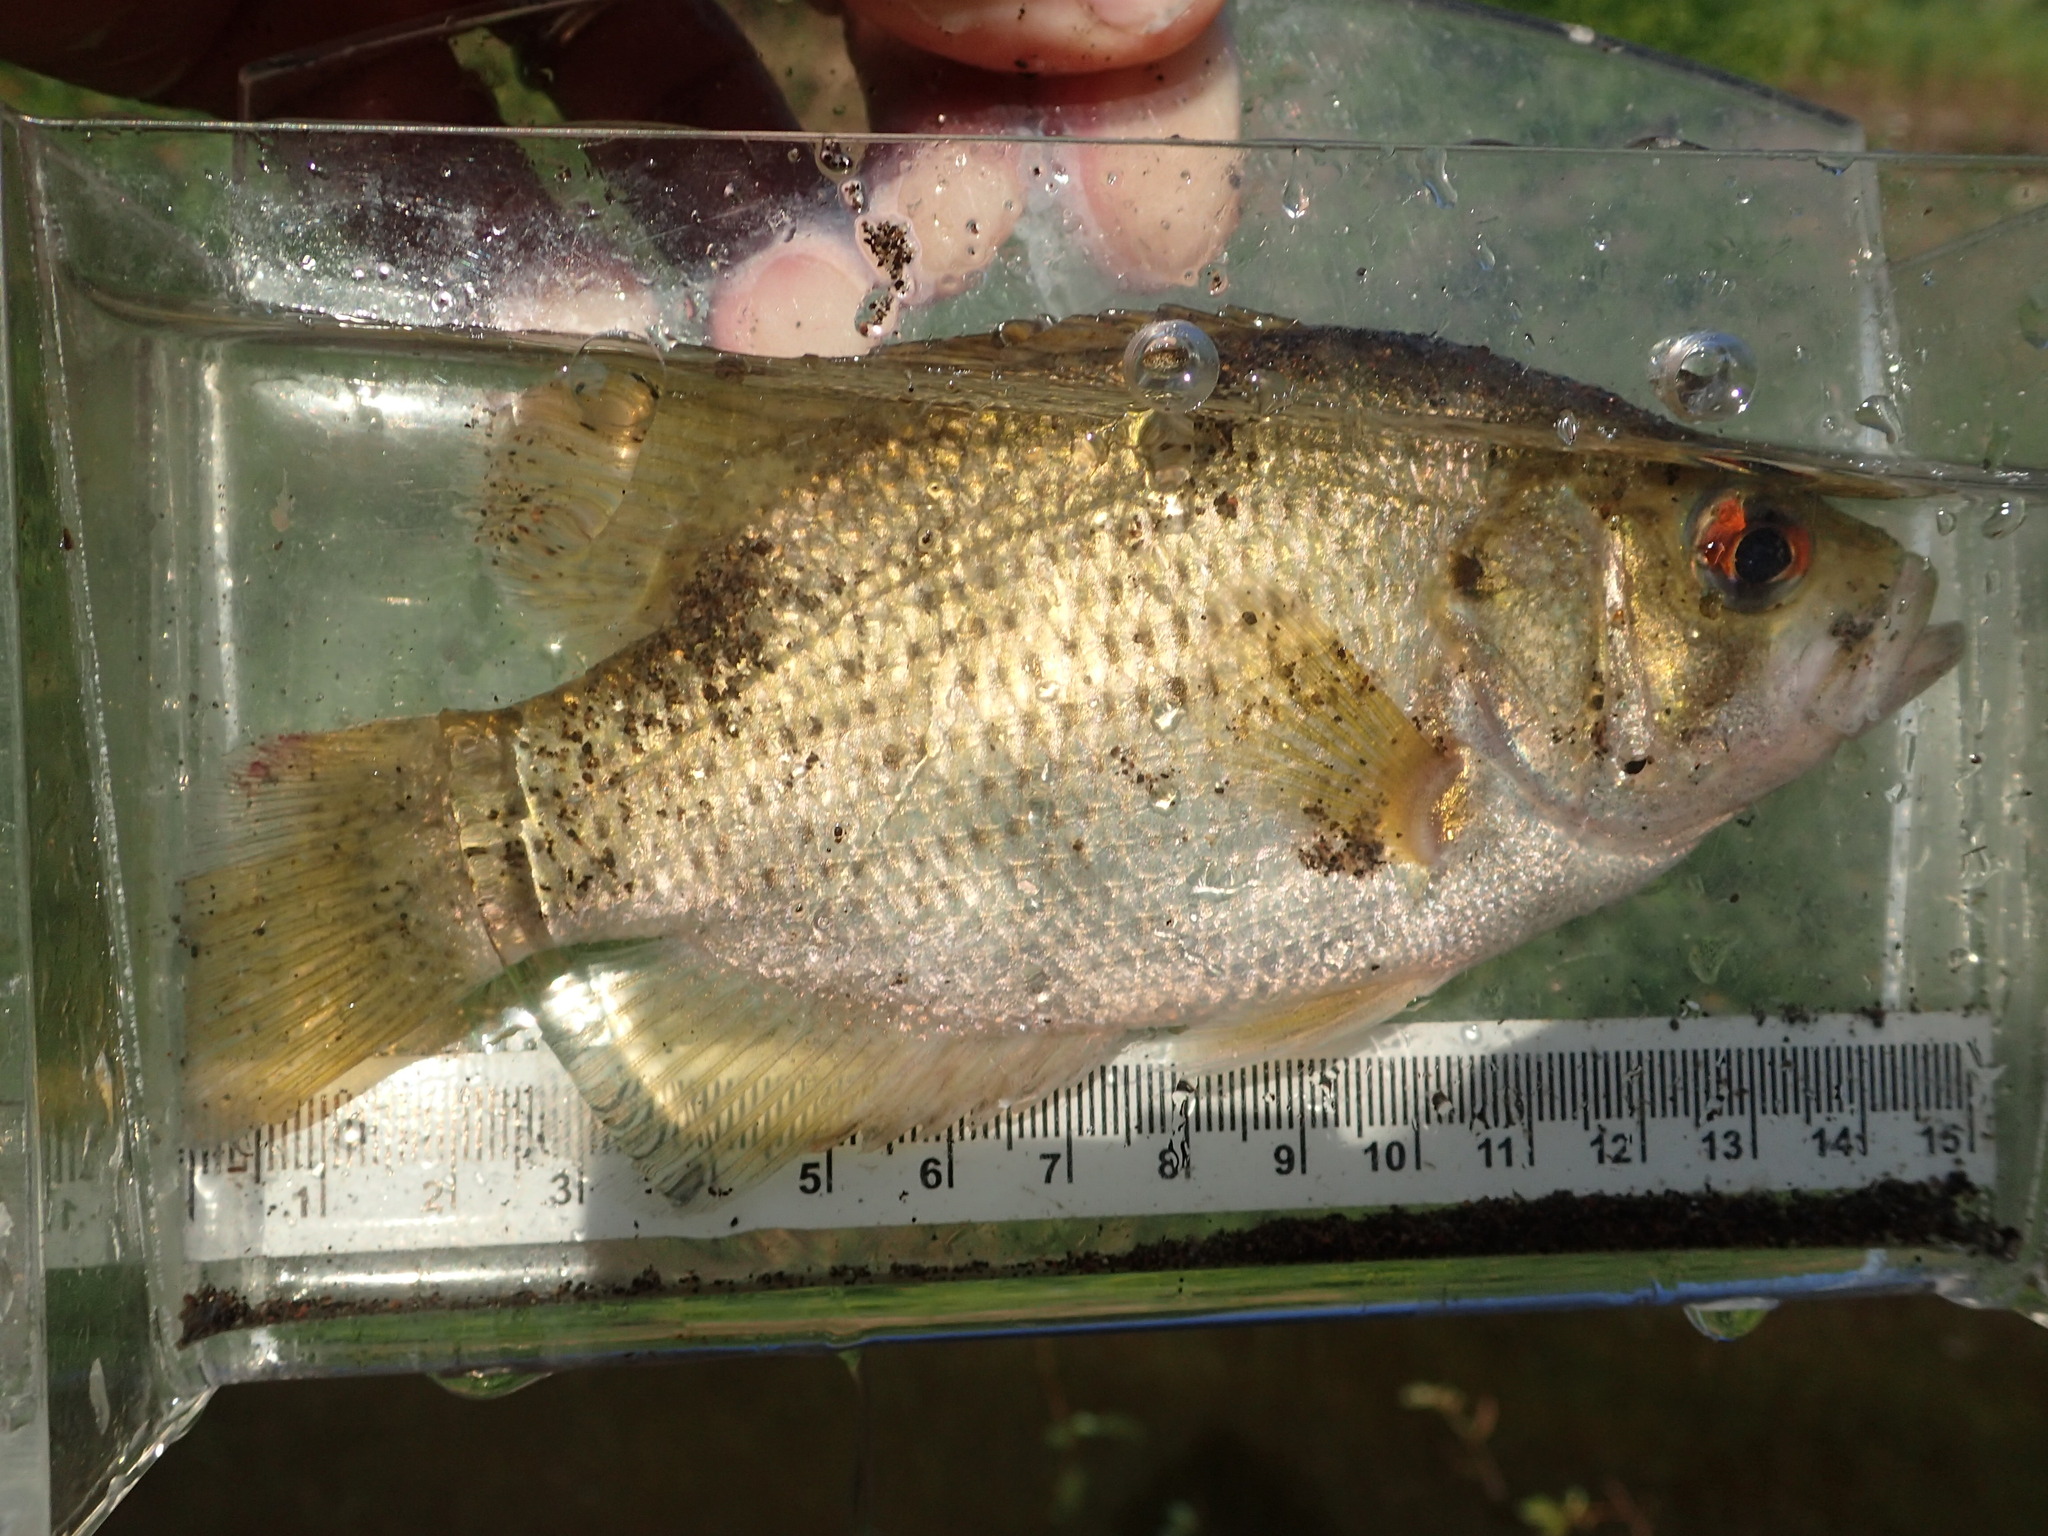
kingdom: Animalia
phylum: Chordata
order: Perciformes
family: Centrarchidae
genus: Ambloplites
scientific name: Ambloplites rupestris
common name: Rock bass
